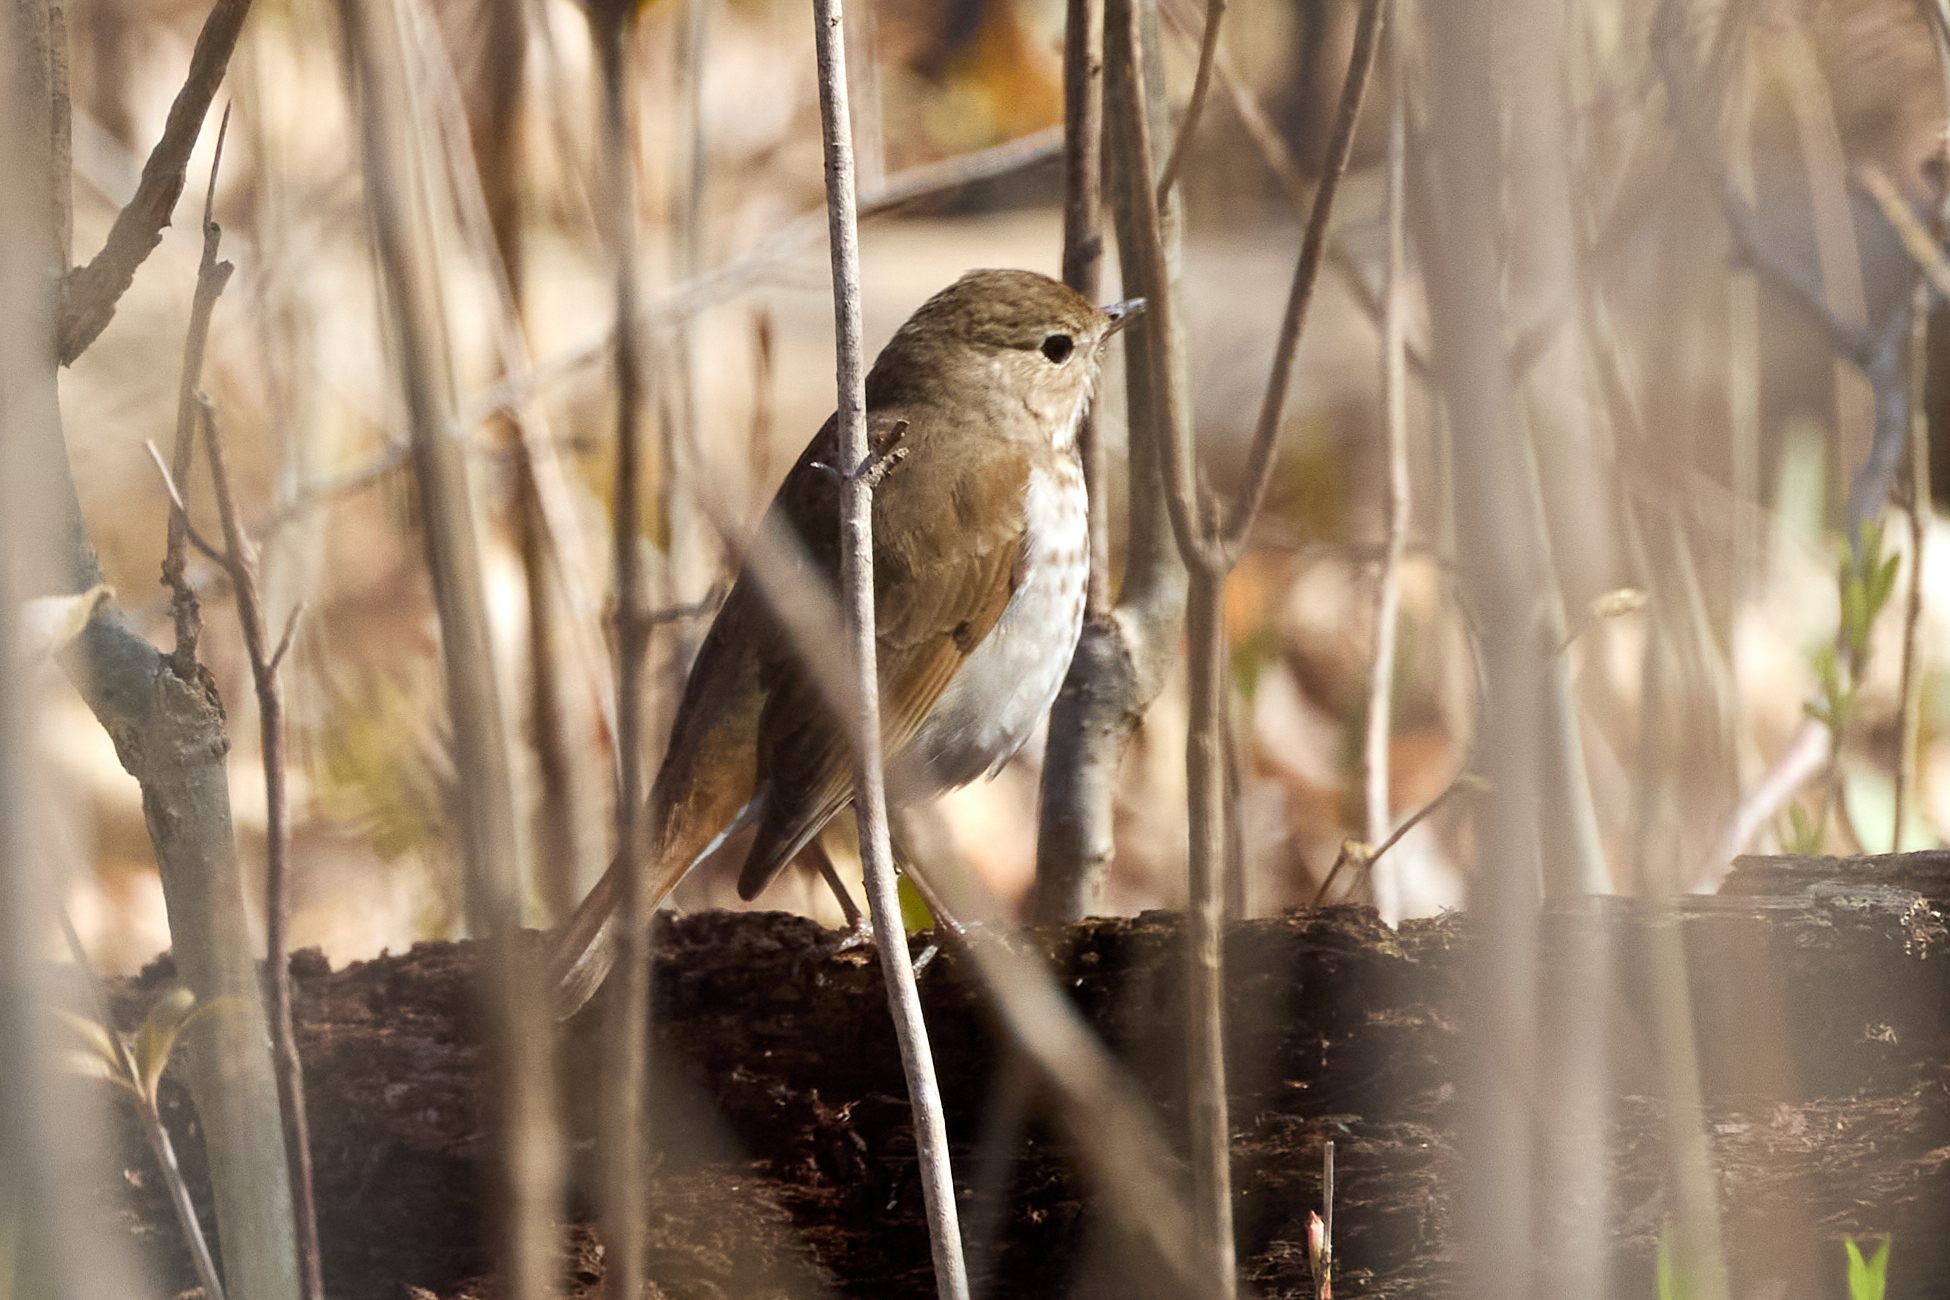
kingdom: Animalia
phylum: Chordata
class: Aves
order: Passeriformes
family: Turdidae
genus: Catharus
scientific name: Catharus guttatus
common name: Hermit thrush
